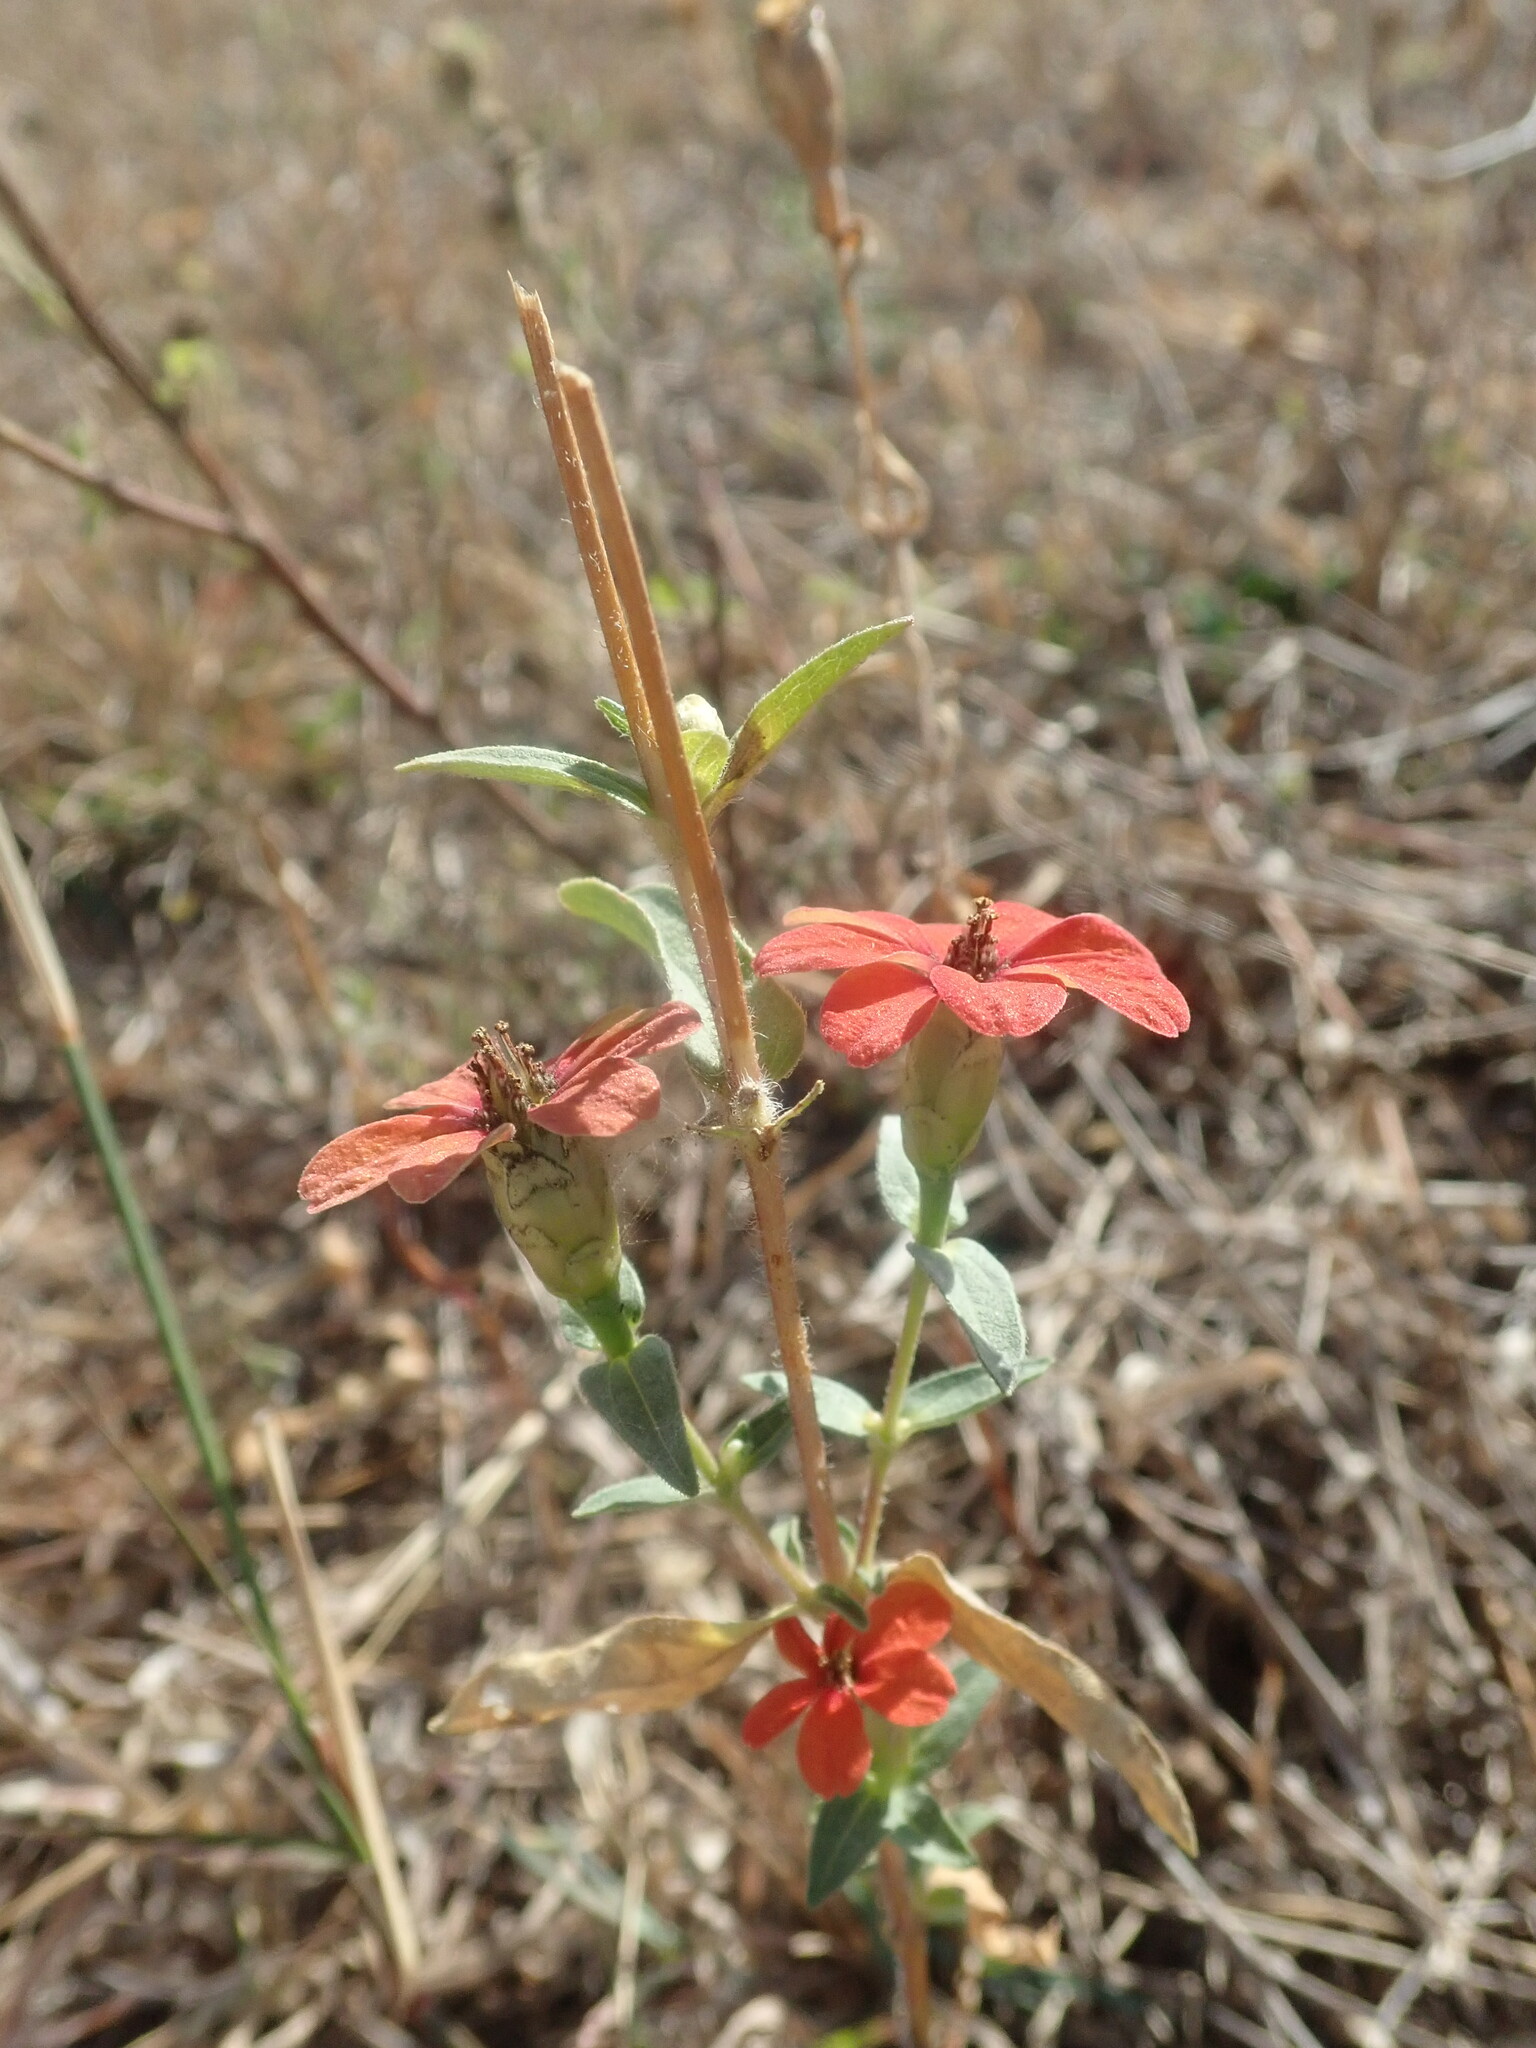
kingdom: Plantae
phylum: Tracheophyta
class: Magnoliopsida
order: Asterales
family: Asteraceae
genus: Zinnia
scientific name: Zinnia peruviana
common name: Peruvian zinnia
